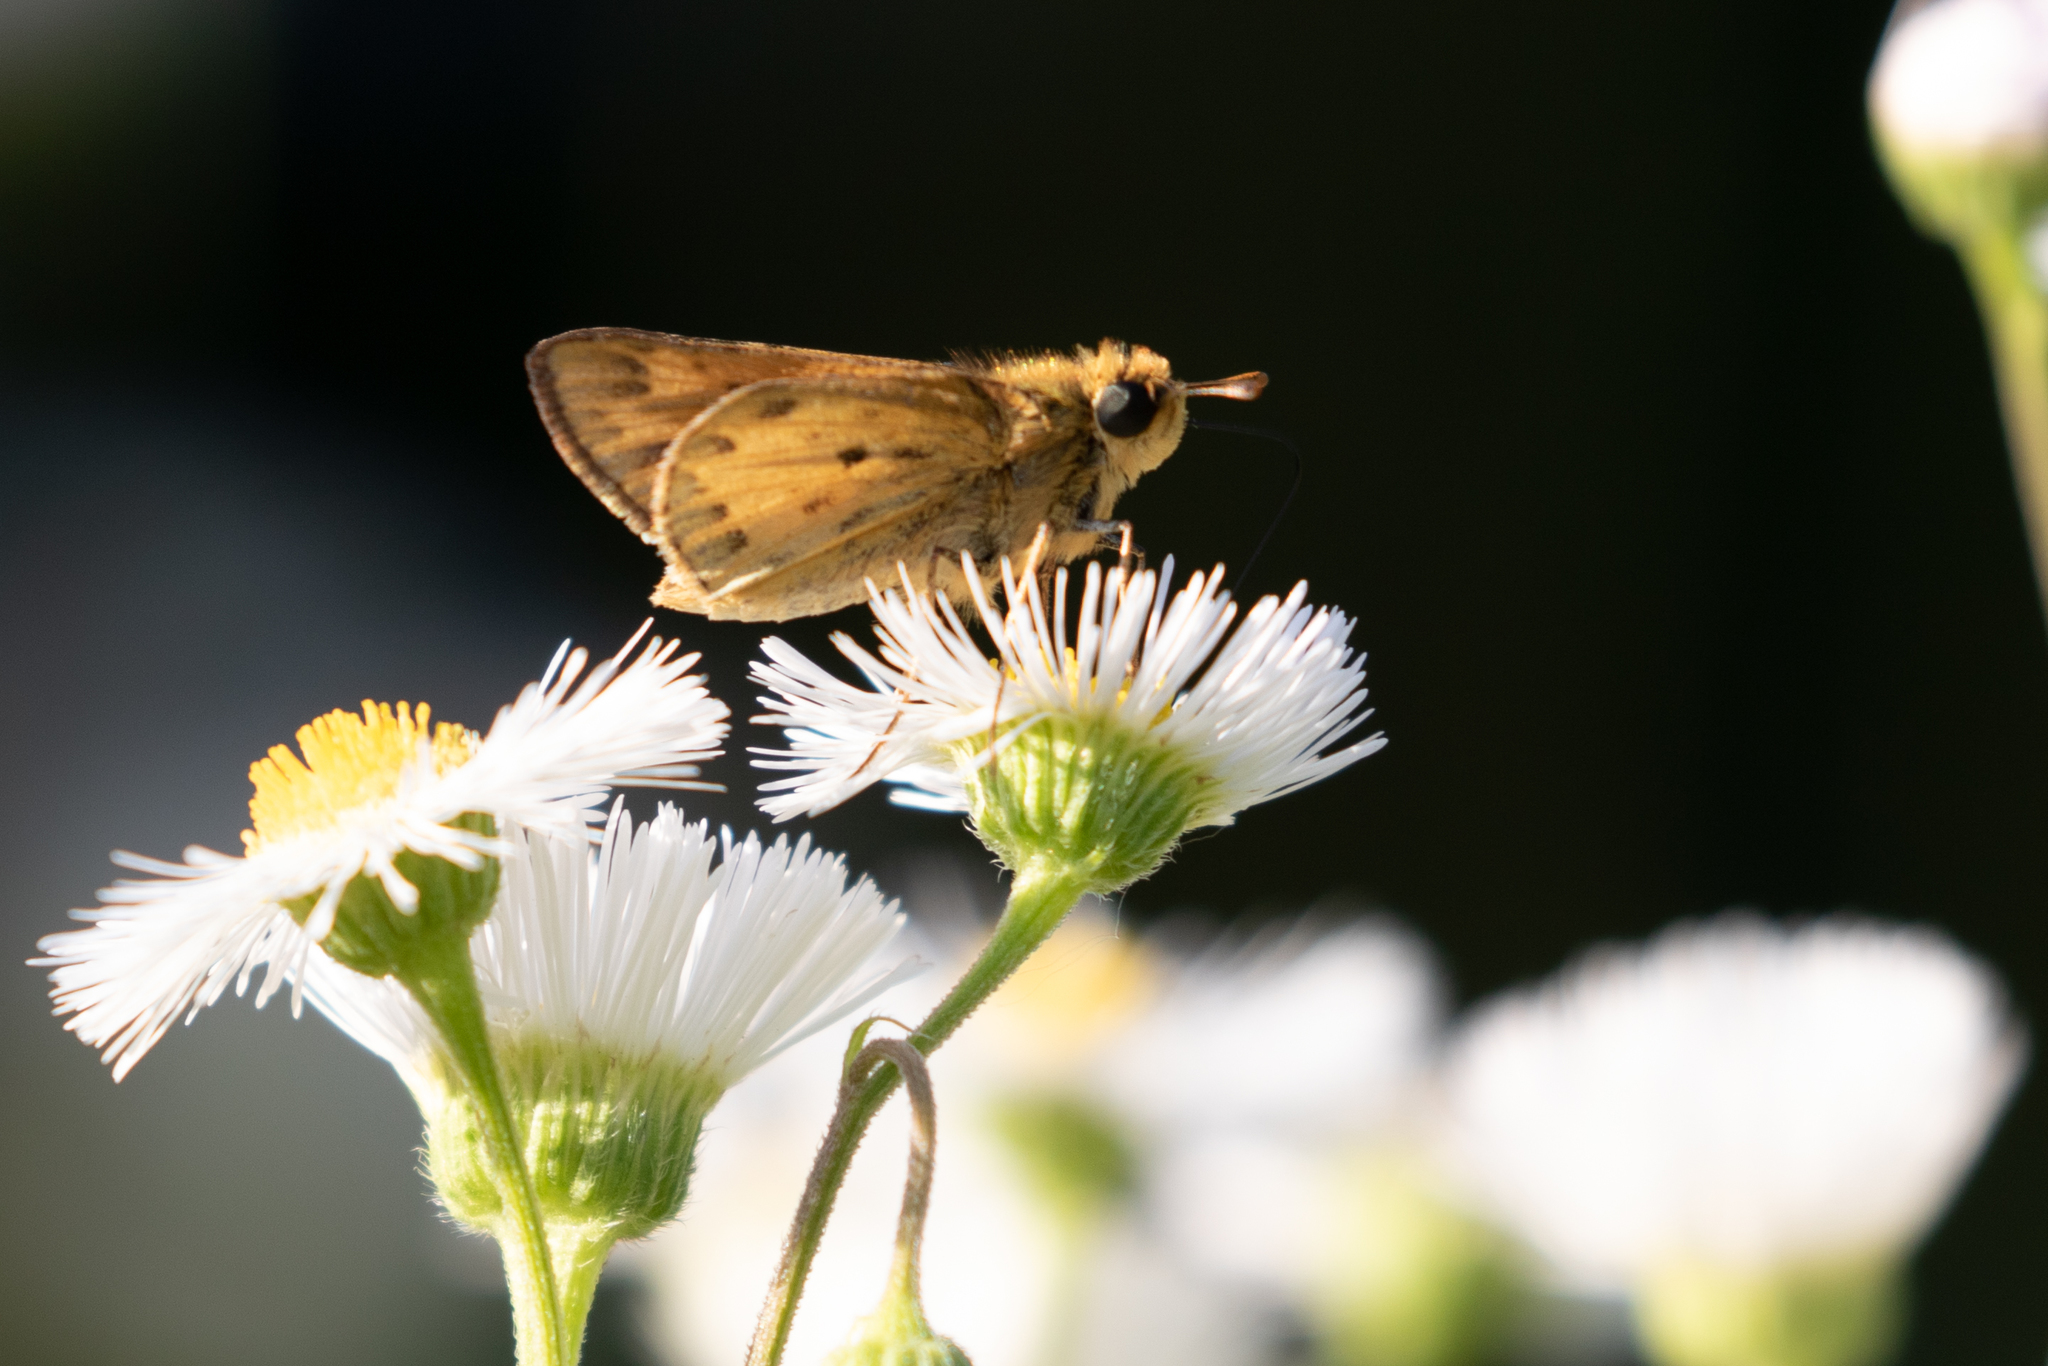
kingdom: Animalia
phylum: Arthropoda
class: Insecta
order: Lepidoptera
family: Hesperiidae
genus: Hylephila
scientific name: Hylephila phyleus
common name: Fiery skipper
